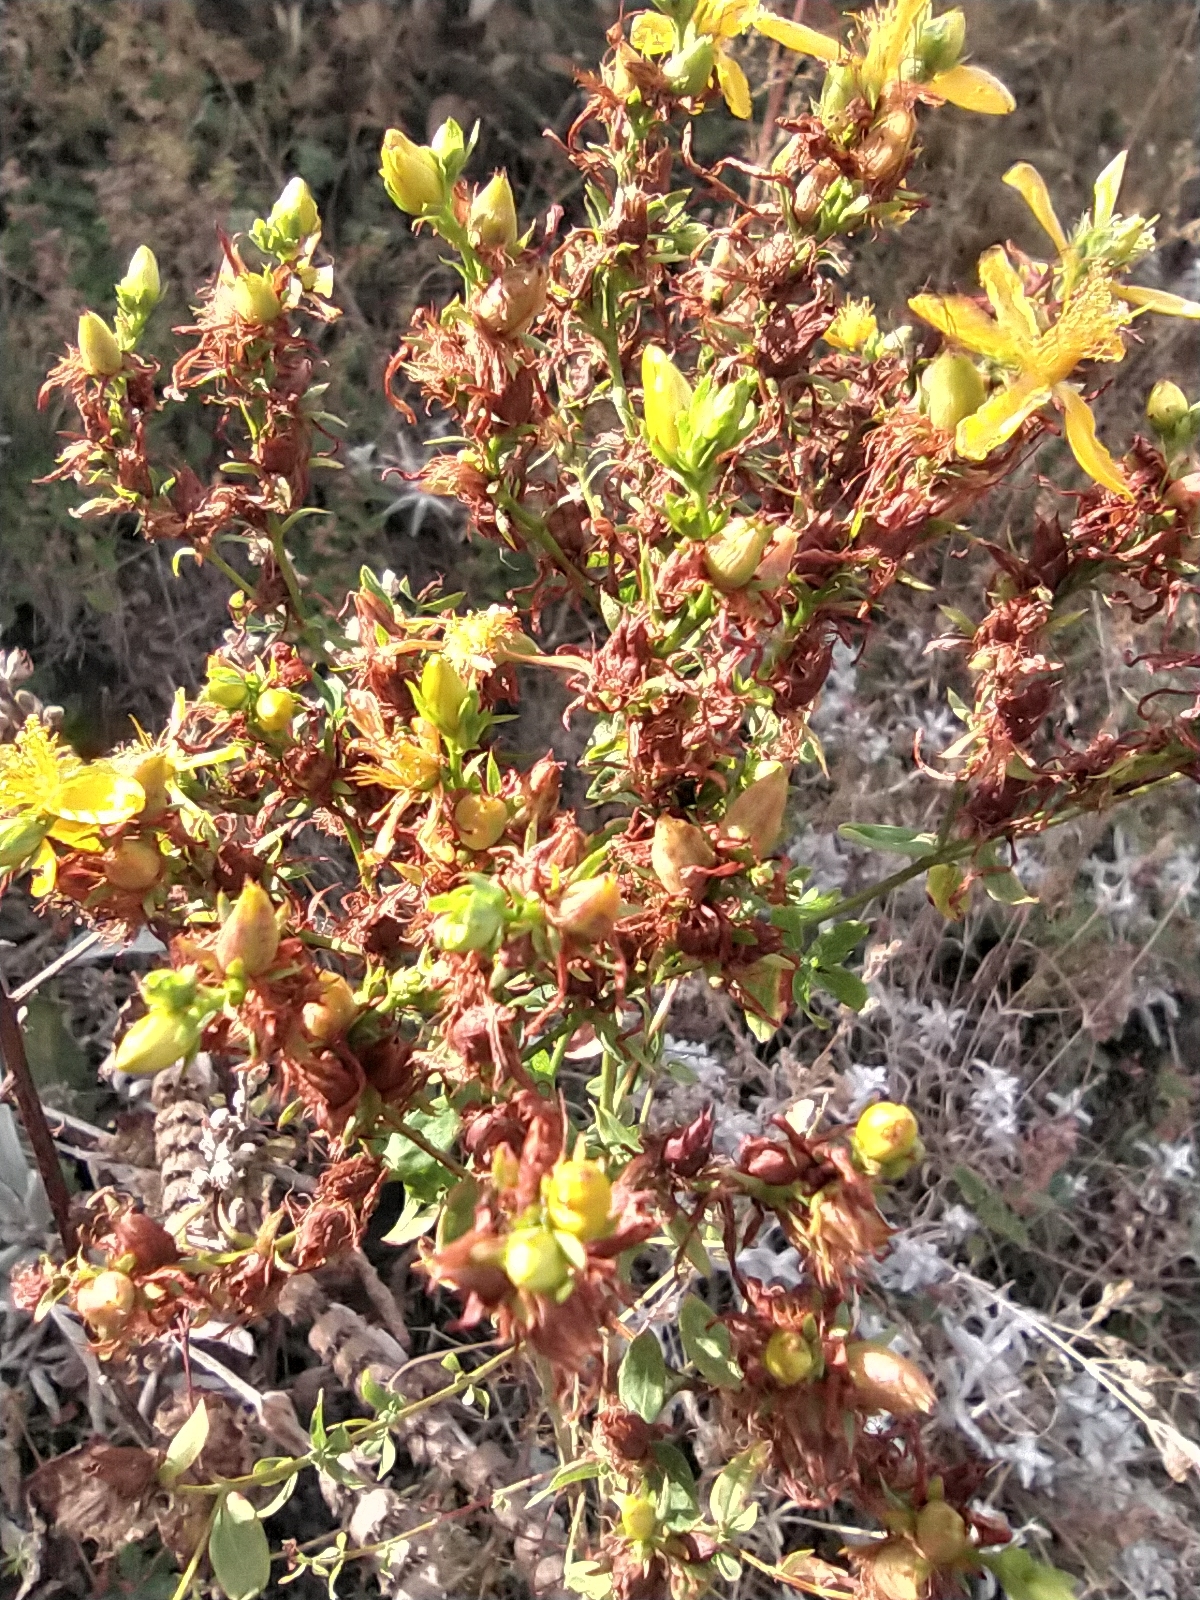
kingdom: Plantae
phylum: Tracheophyta
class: Magnoliopsida
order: Malpighiales
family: Hypericaceae
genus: Hypericum
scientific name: Hypericum perforatum
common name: Common st. johnswort
